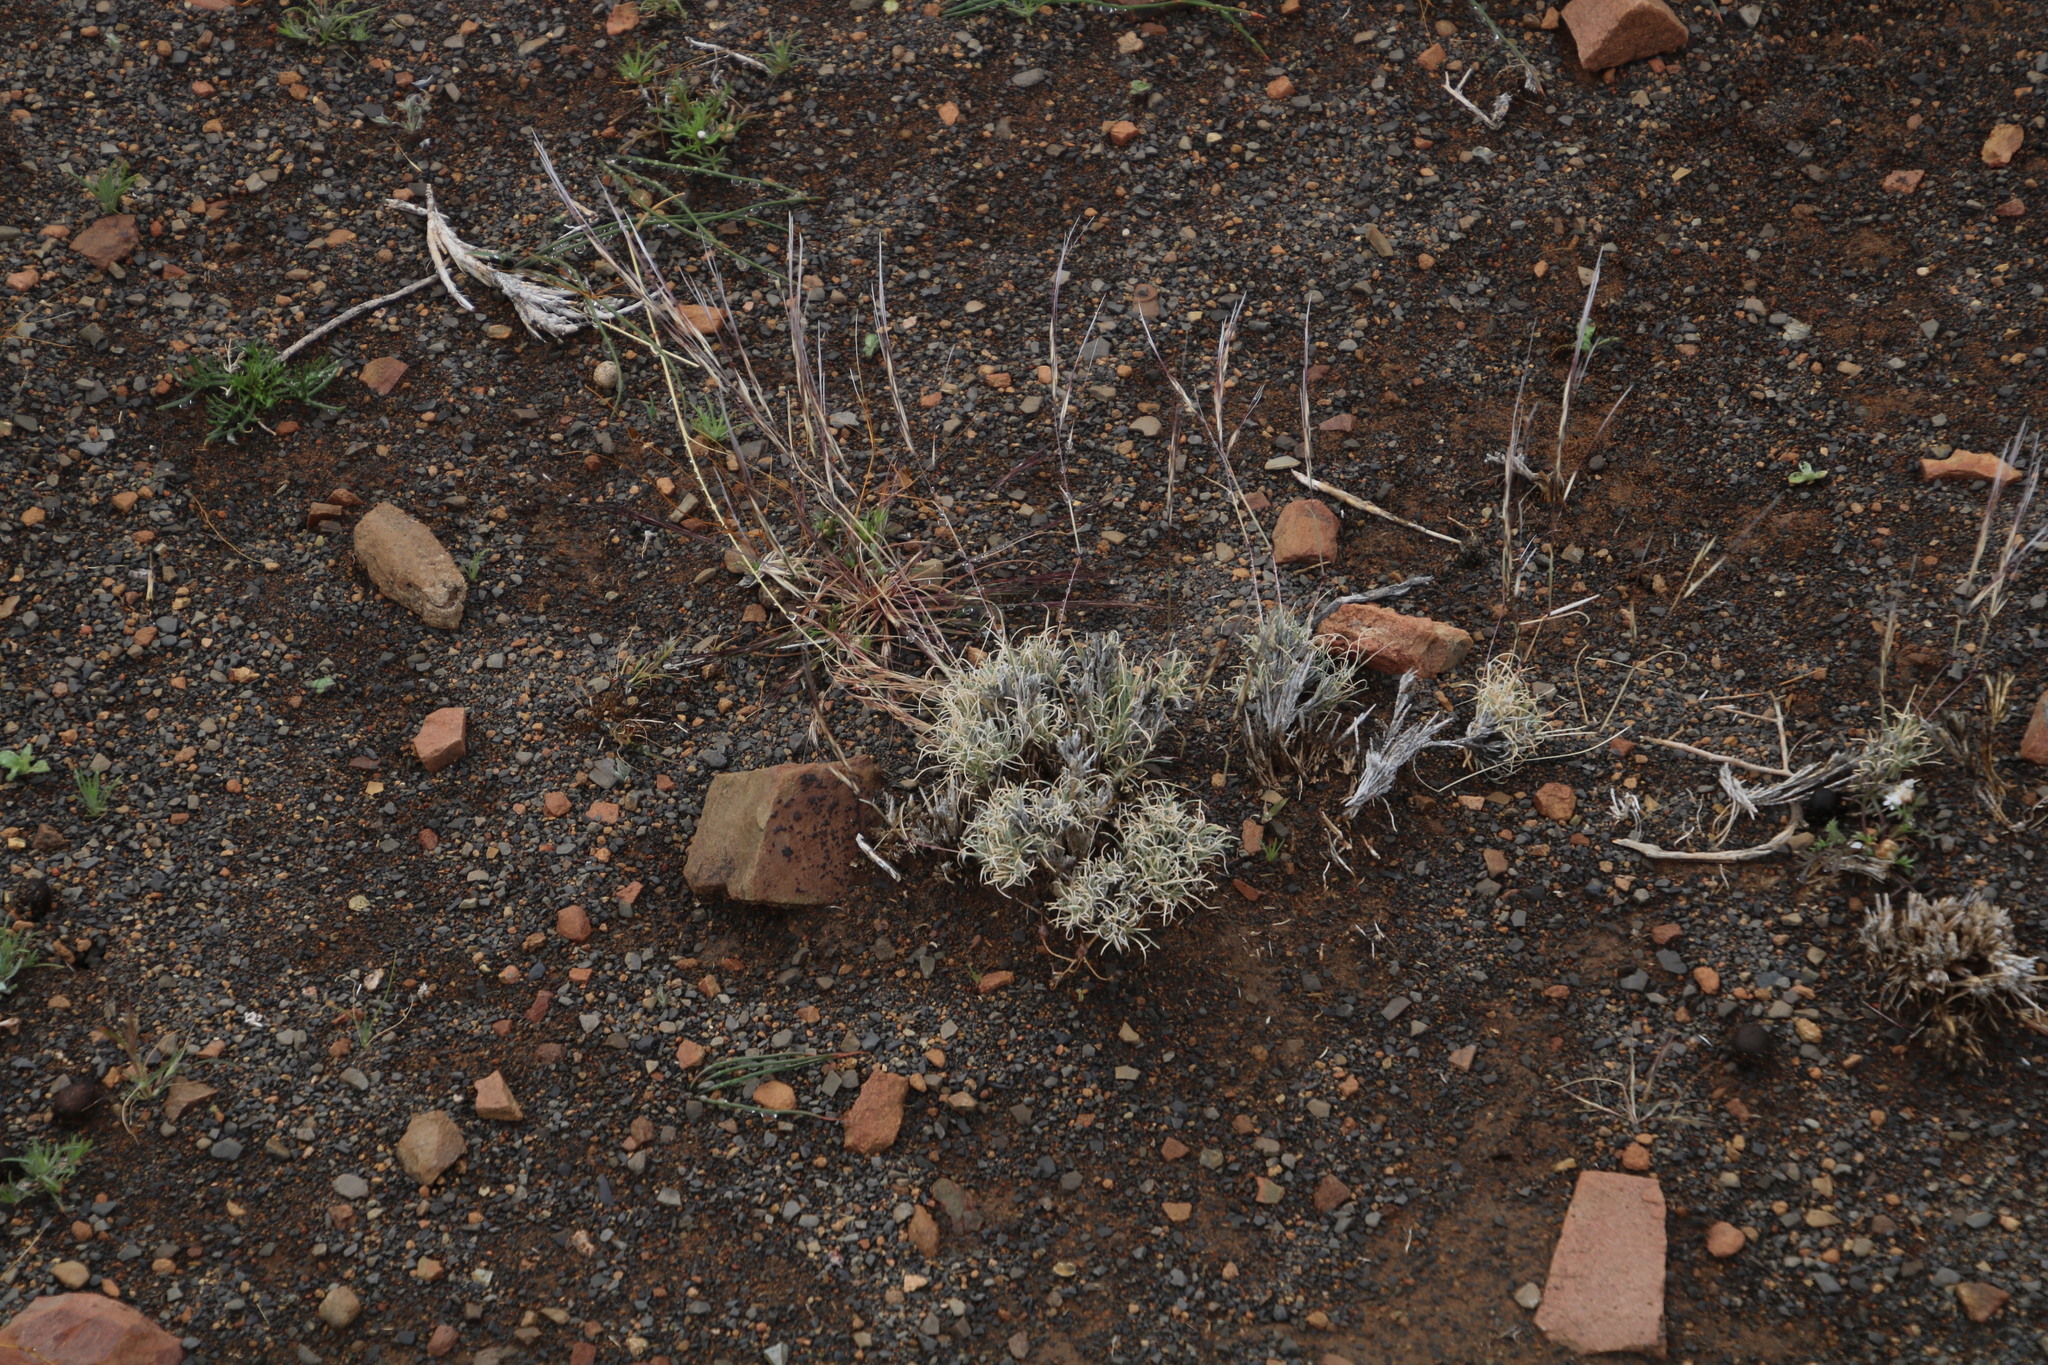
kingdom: Plantae
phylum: Tracheophyta
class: Liliopsida
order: Poales
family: Poaceae
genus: Stipagrostis
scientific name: Stipagrostis obtusa
